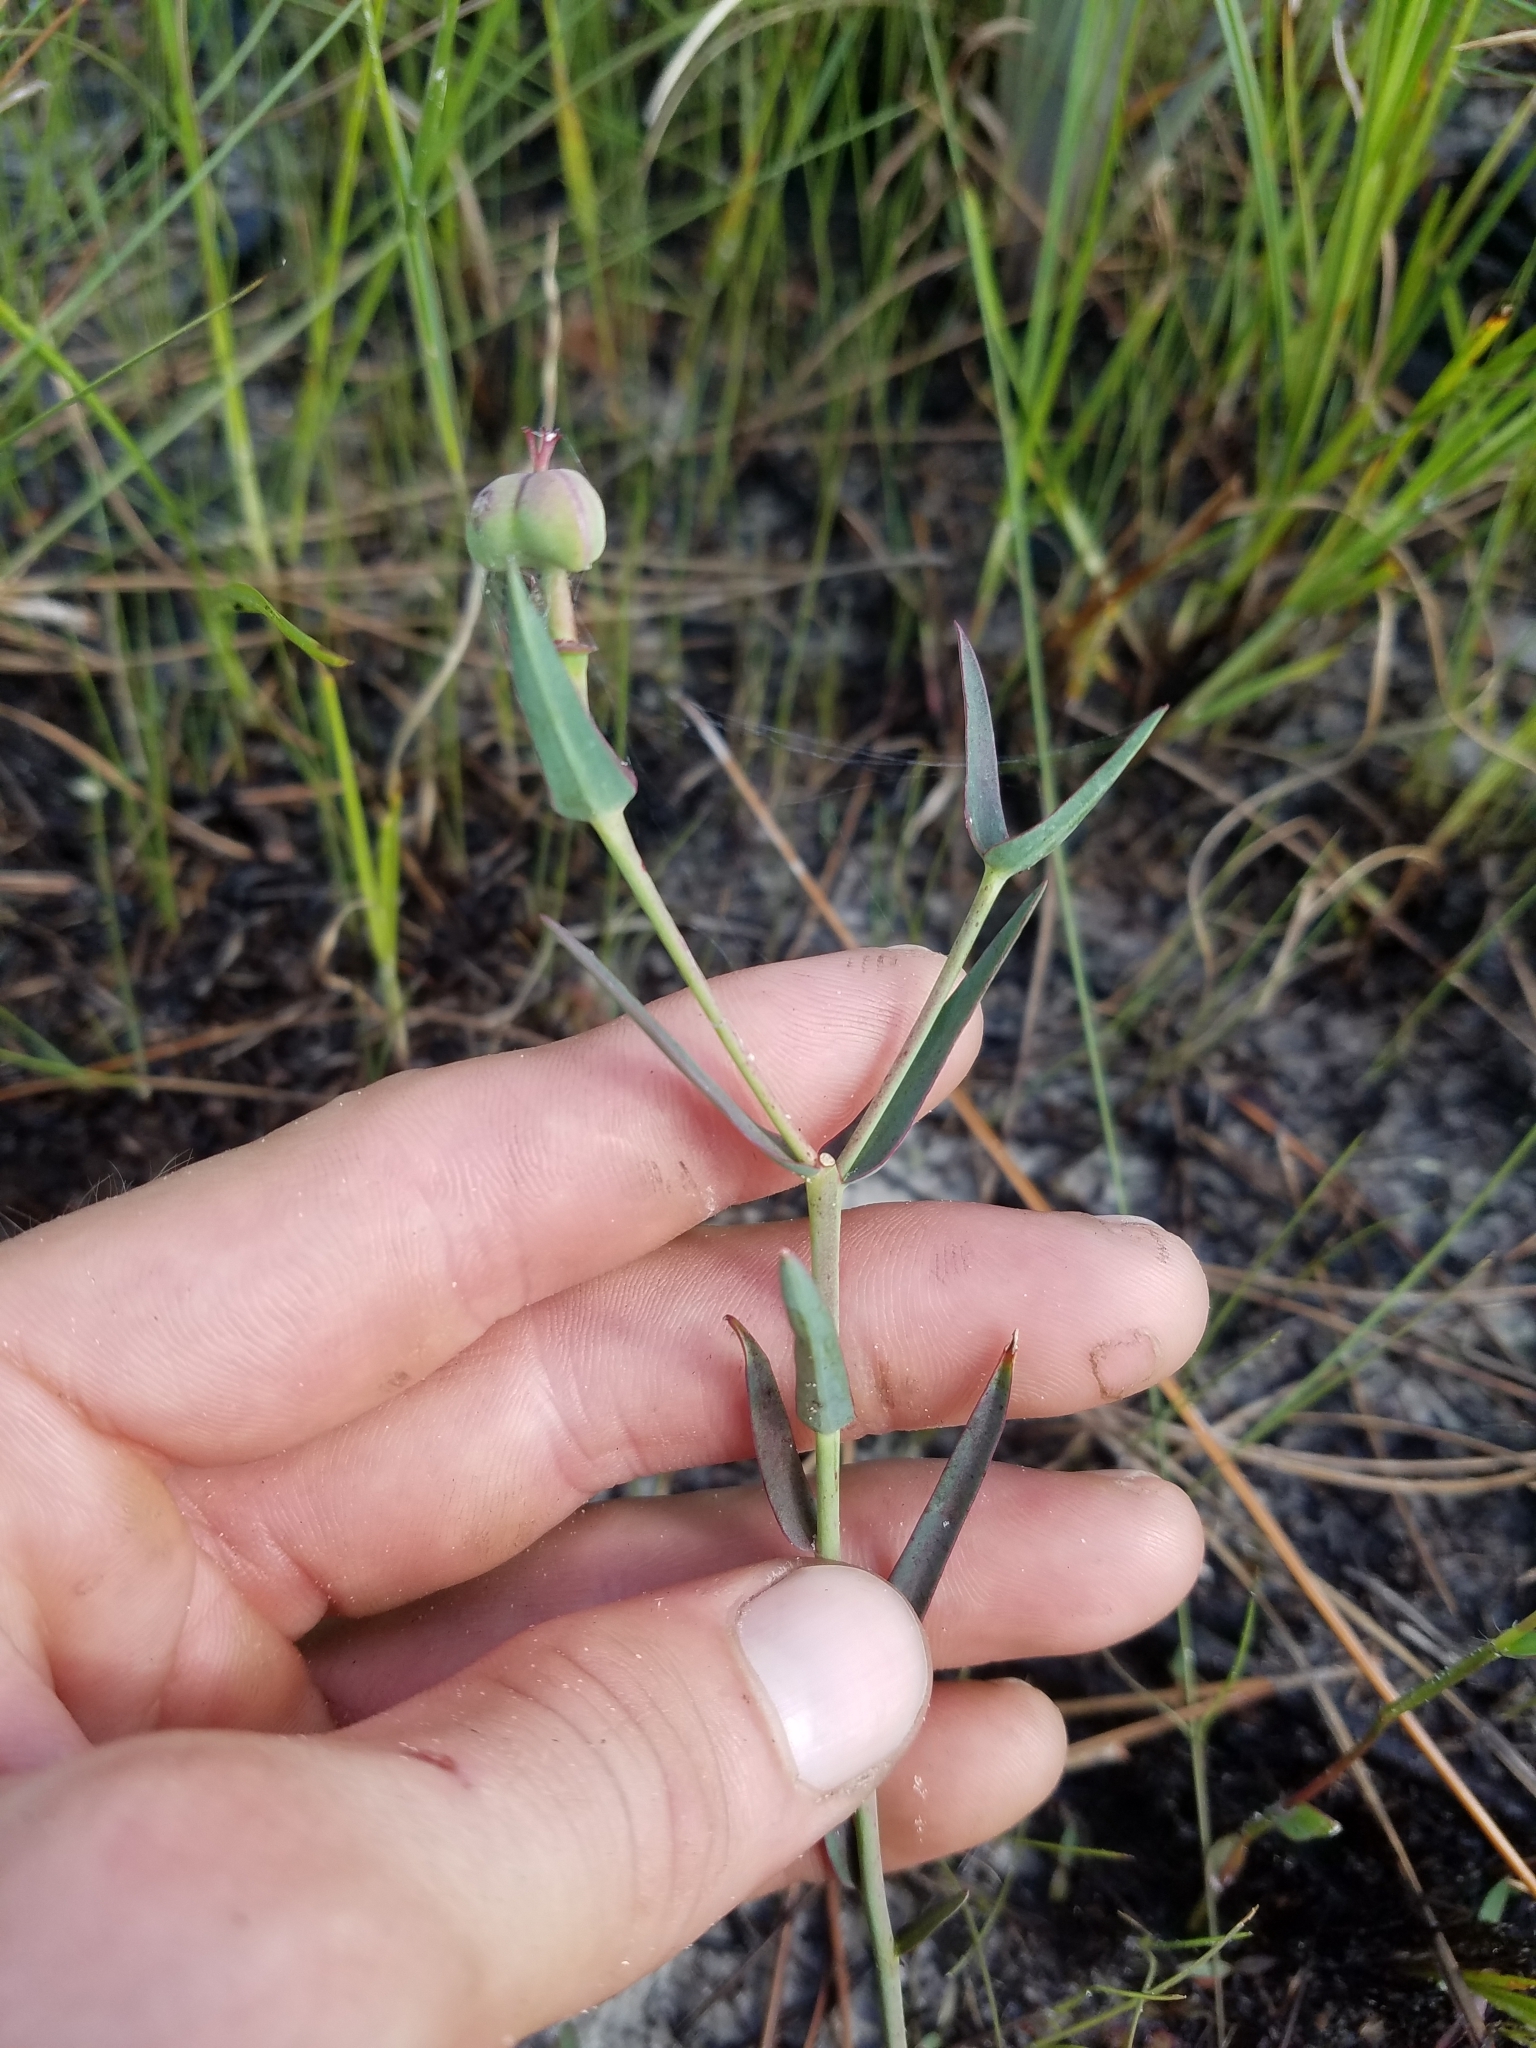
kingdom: Plantae
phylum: Tracheophyta
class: Magnoliopsida
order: Malpighiales
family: Euphorbiaceae
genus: Euphorbia
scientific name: Euphorbia inundata
